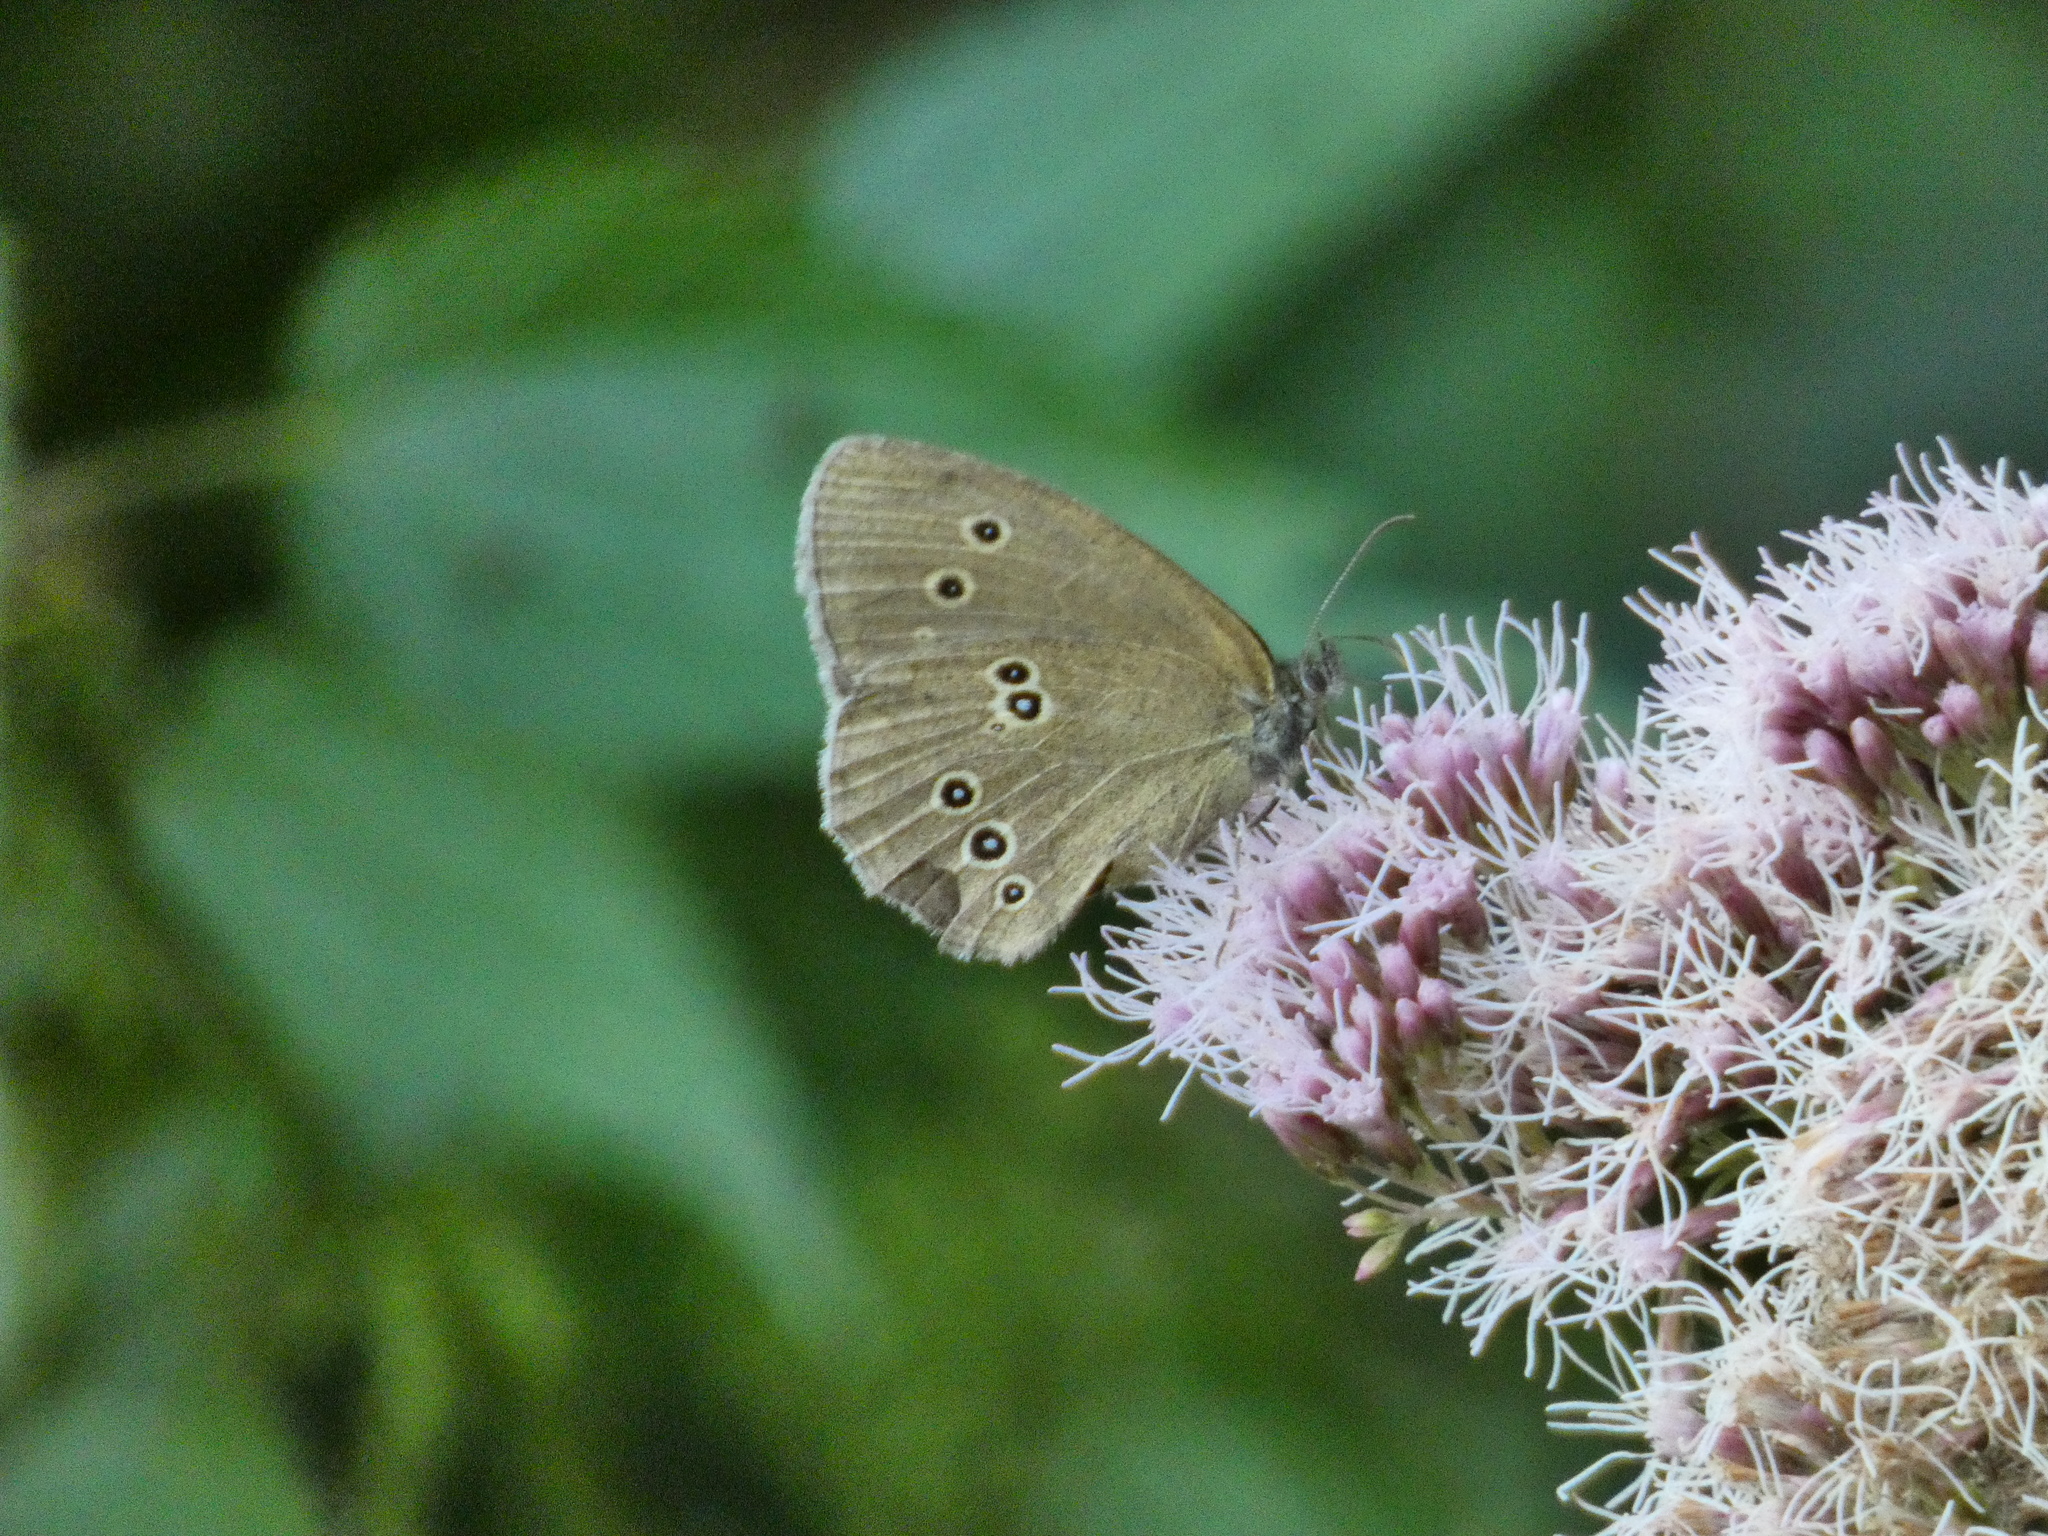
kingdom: Animalia
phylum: Arthropoda
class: Insecta
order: Lepidoptera
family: Nymphalidae
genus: Aphantopus
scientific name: Aphantopus hyperantus
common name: Ringlet
